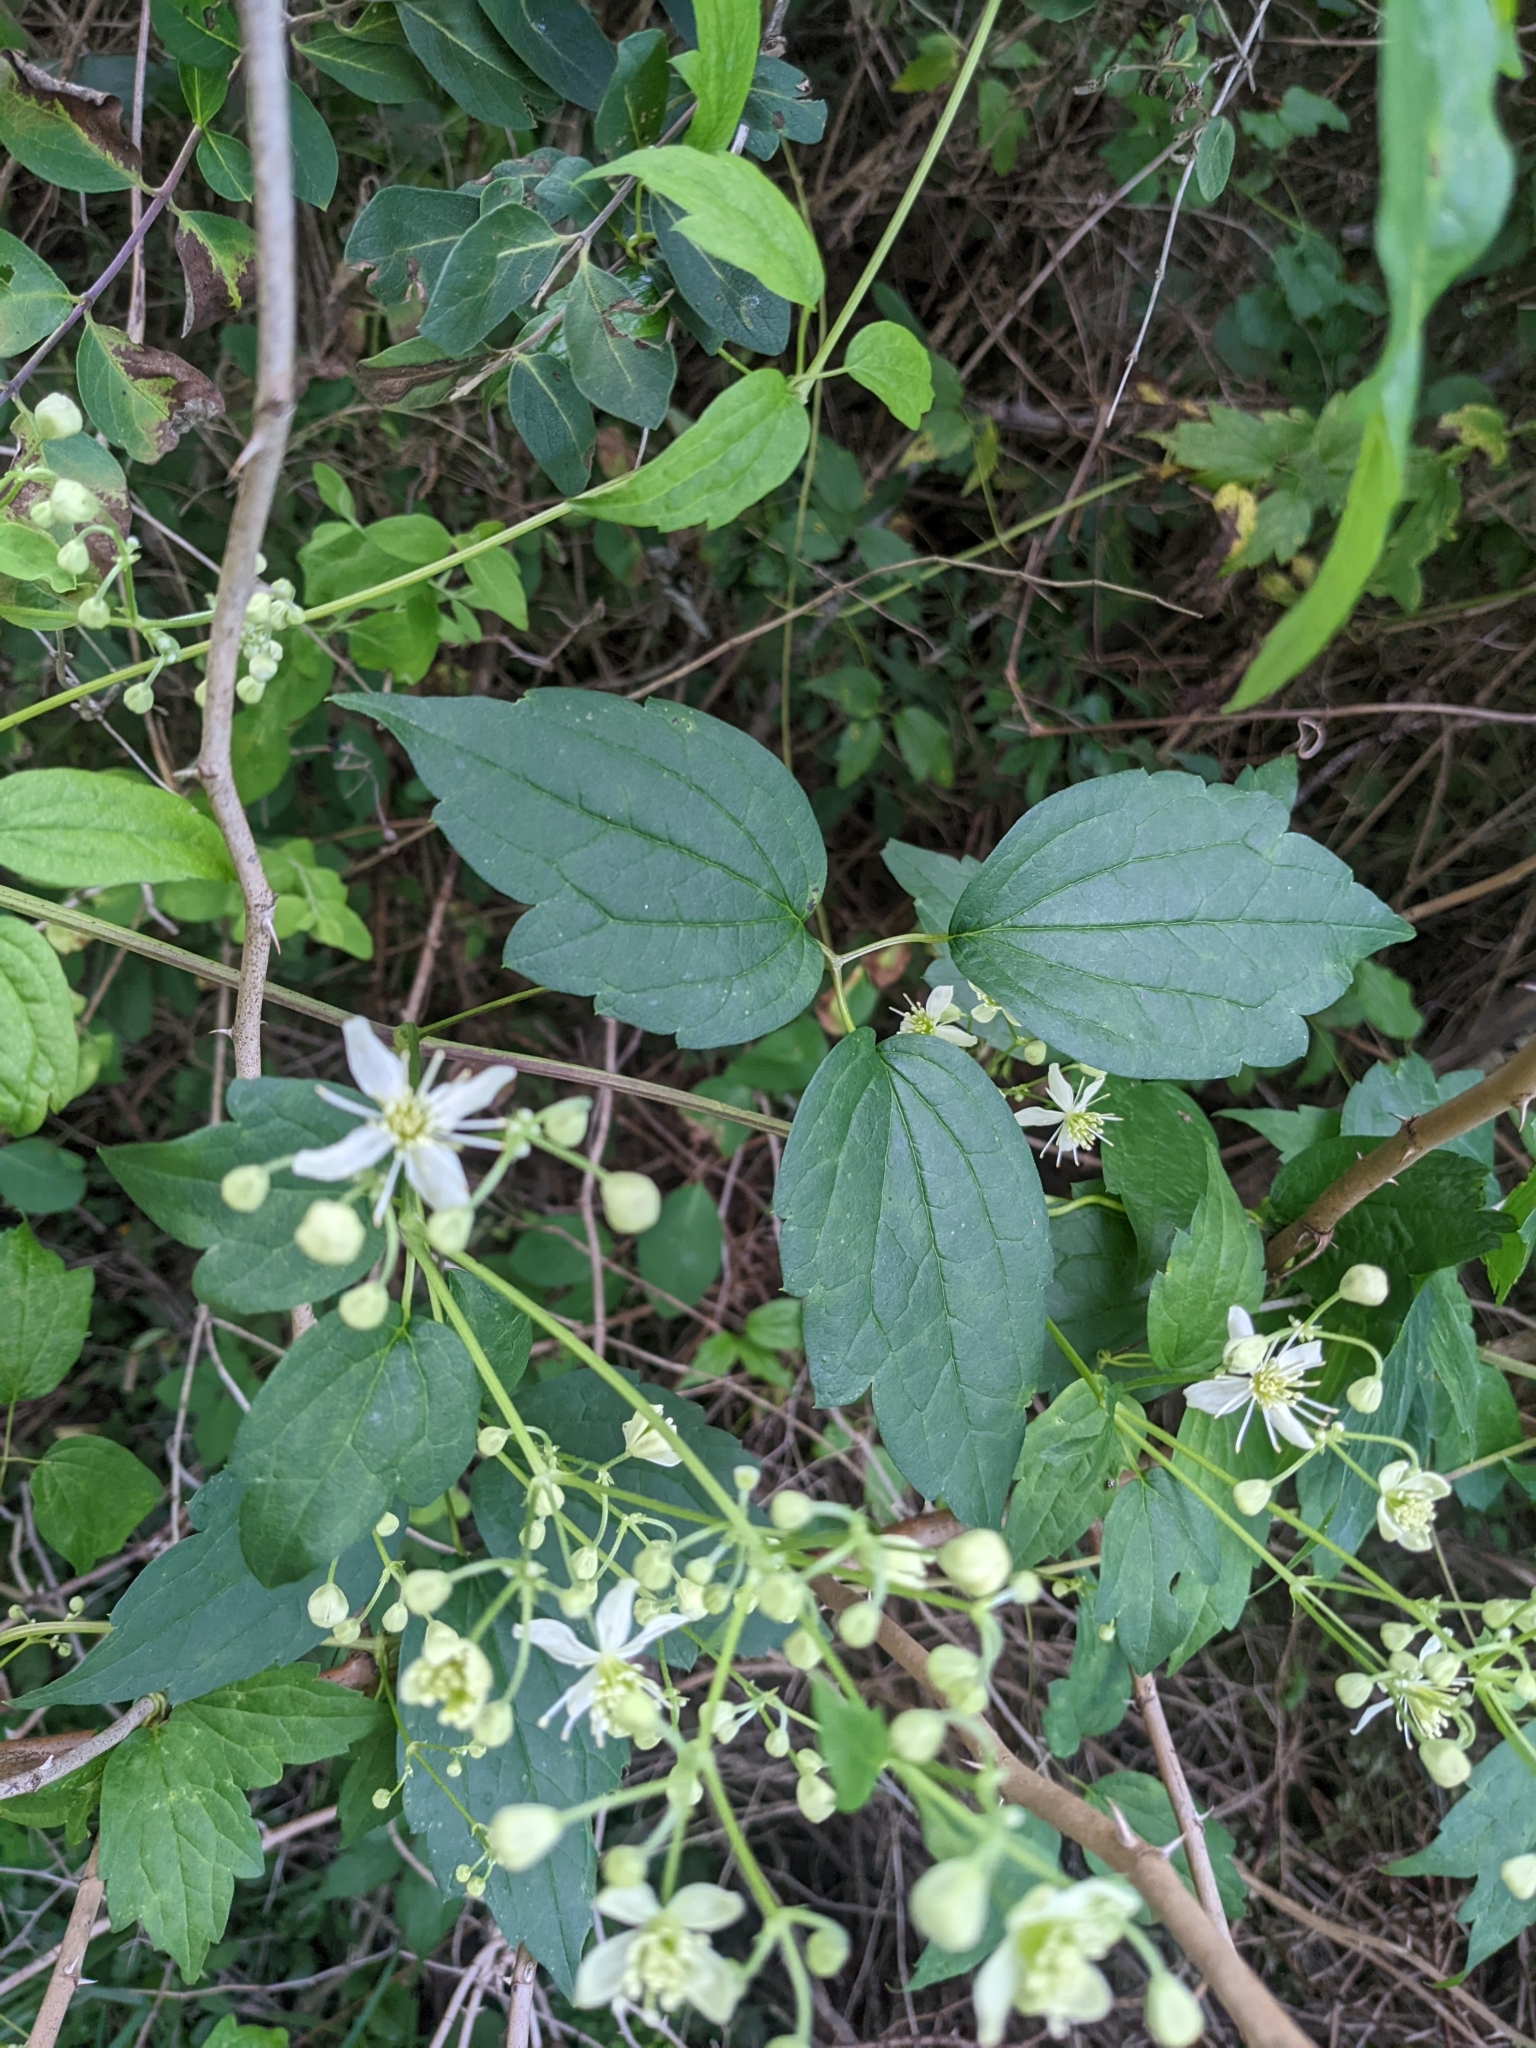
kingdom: Plantae
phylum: Tracheophyta
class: Magnoliopsida
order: Ranunculales
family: Ranunculaceae
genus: Clematis
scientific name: Clematis virginiana
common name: Virgin's-bower
